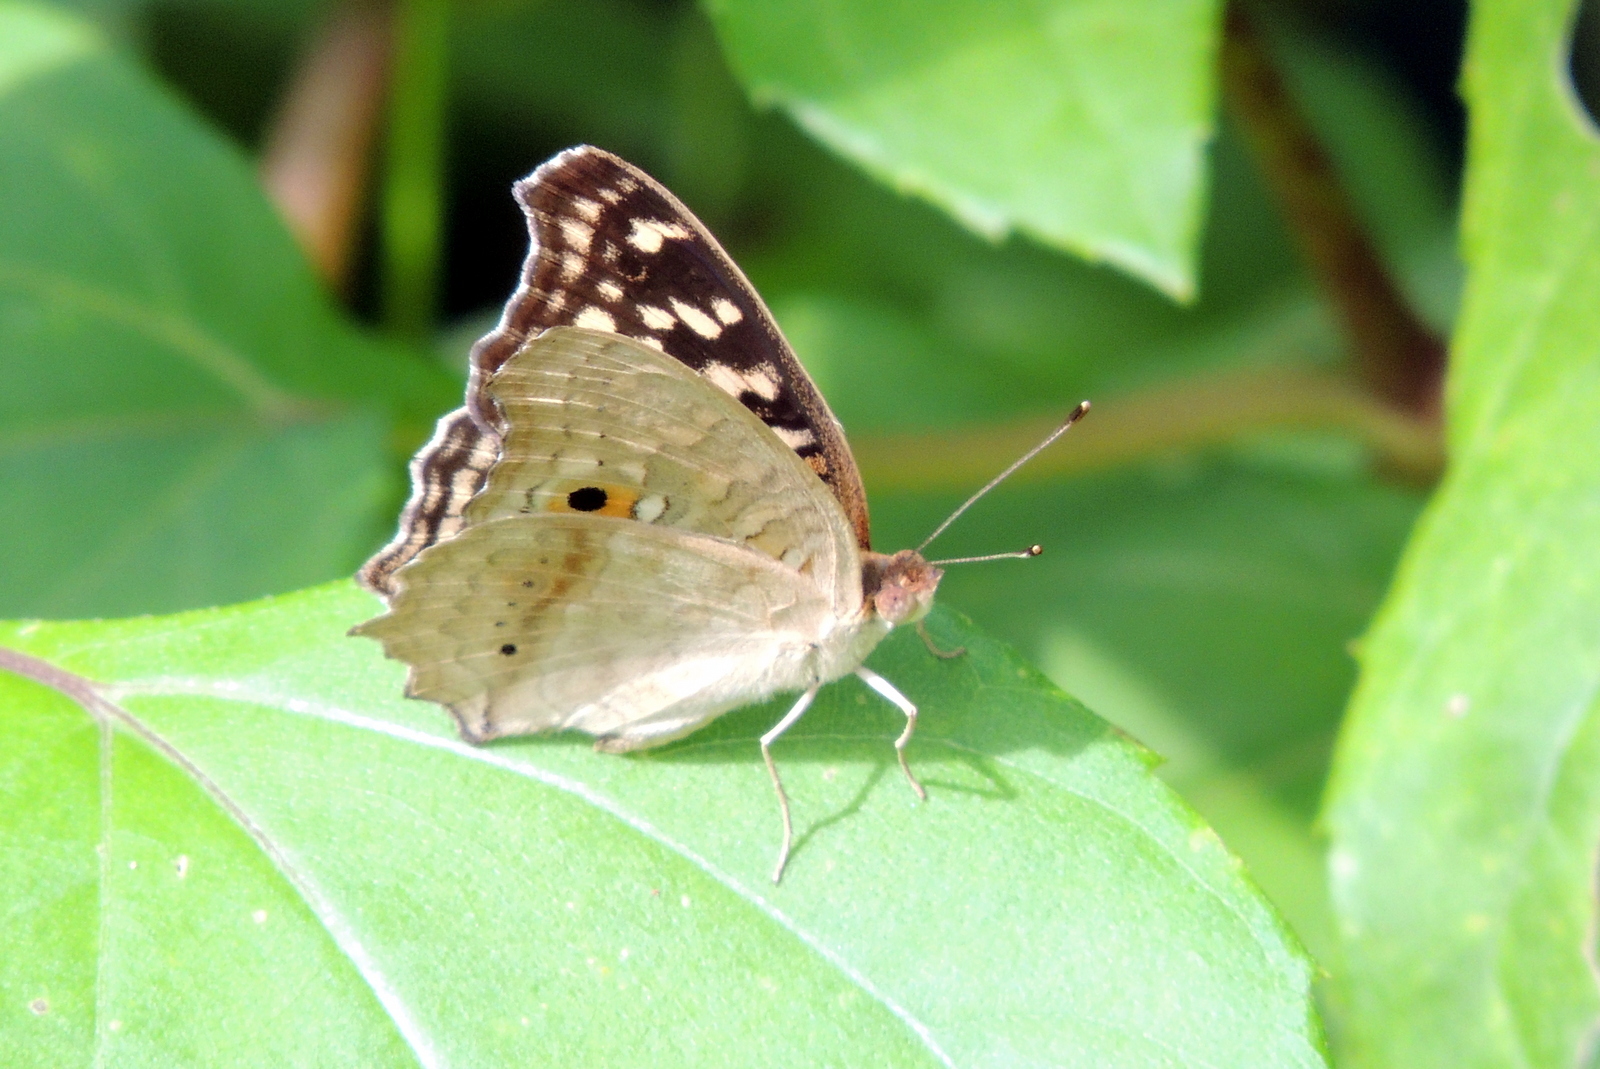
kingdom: Animalia
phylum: Arthropoda
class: Insecta
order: Lepidoptera
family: Nymphalidae
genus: Junonia
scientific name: Junonia lemonias
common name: Lemon pansy
